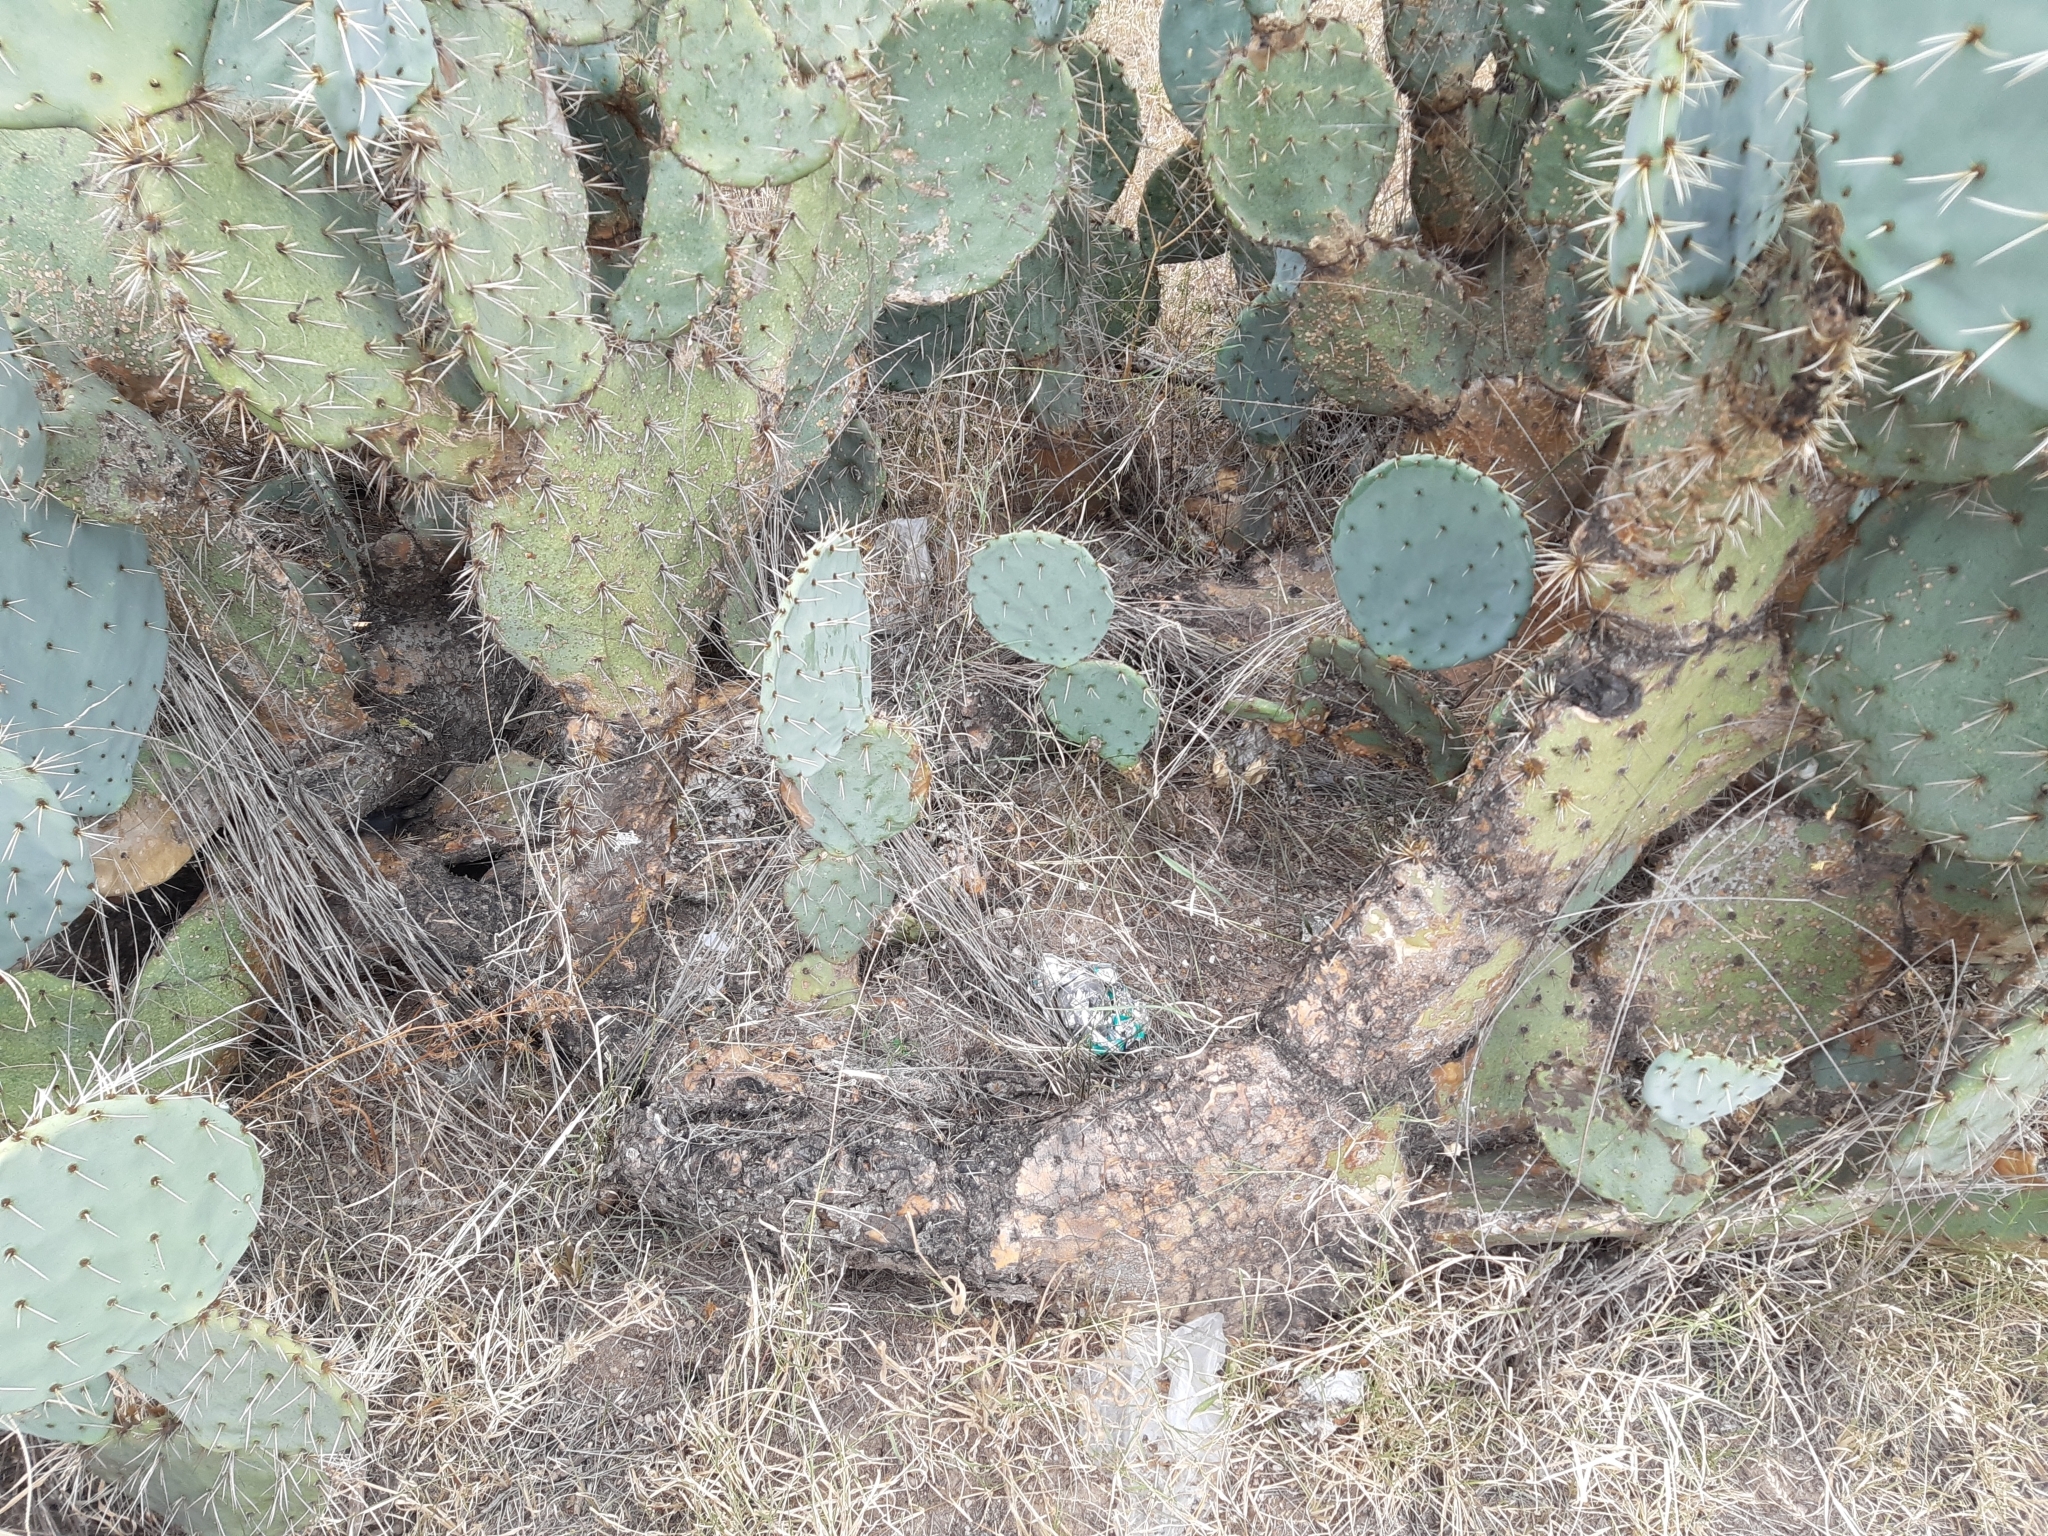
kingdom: Plantae
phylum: Tracheophyta
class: Magnoliopsida
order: Caryophyllales
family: Cactaceae
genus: Opuntia
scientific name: Opuntia robusta
